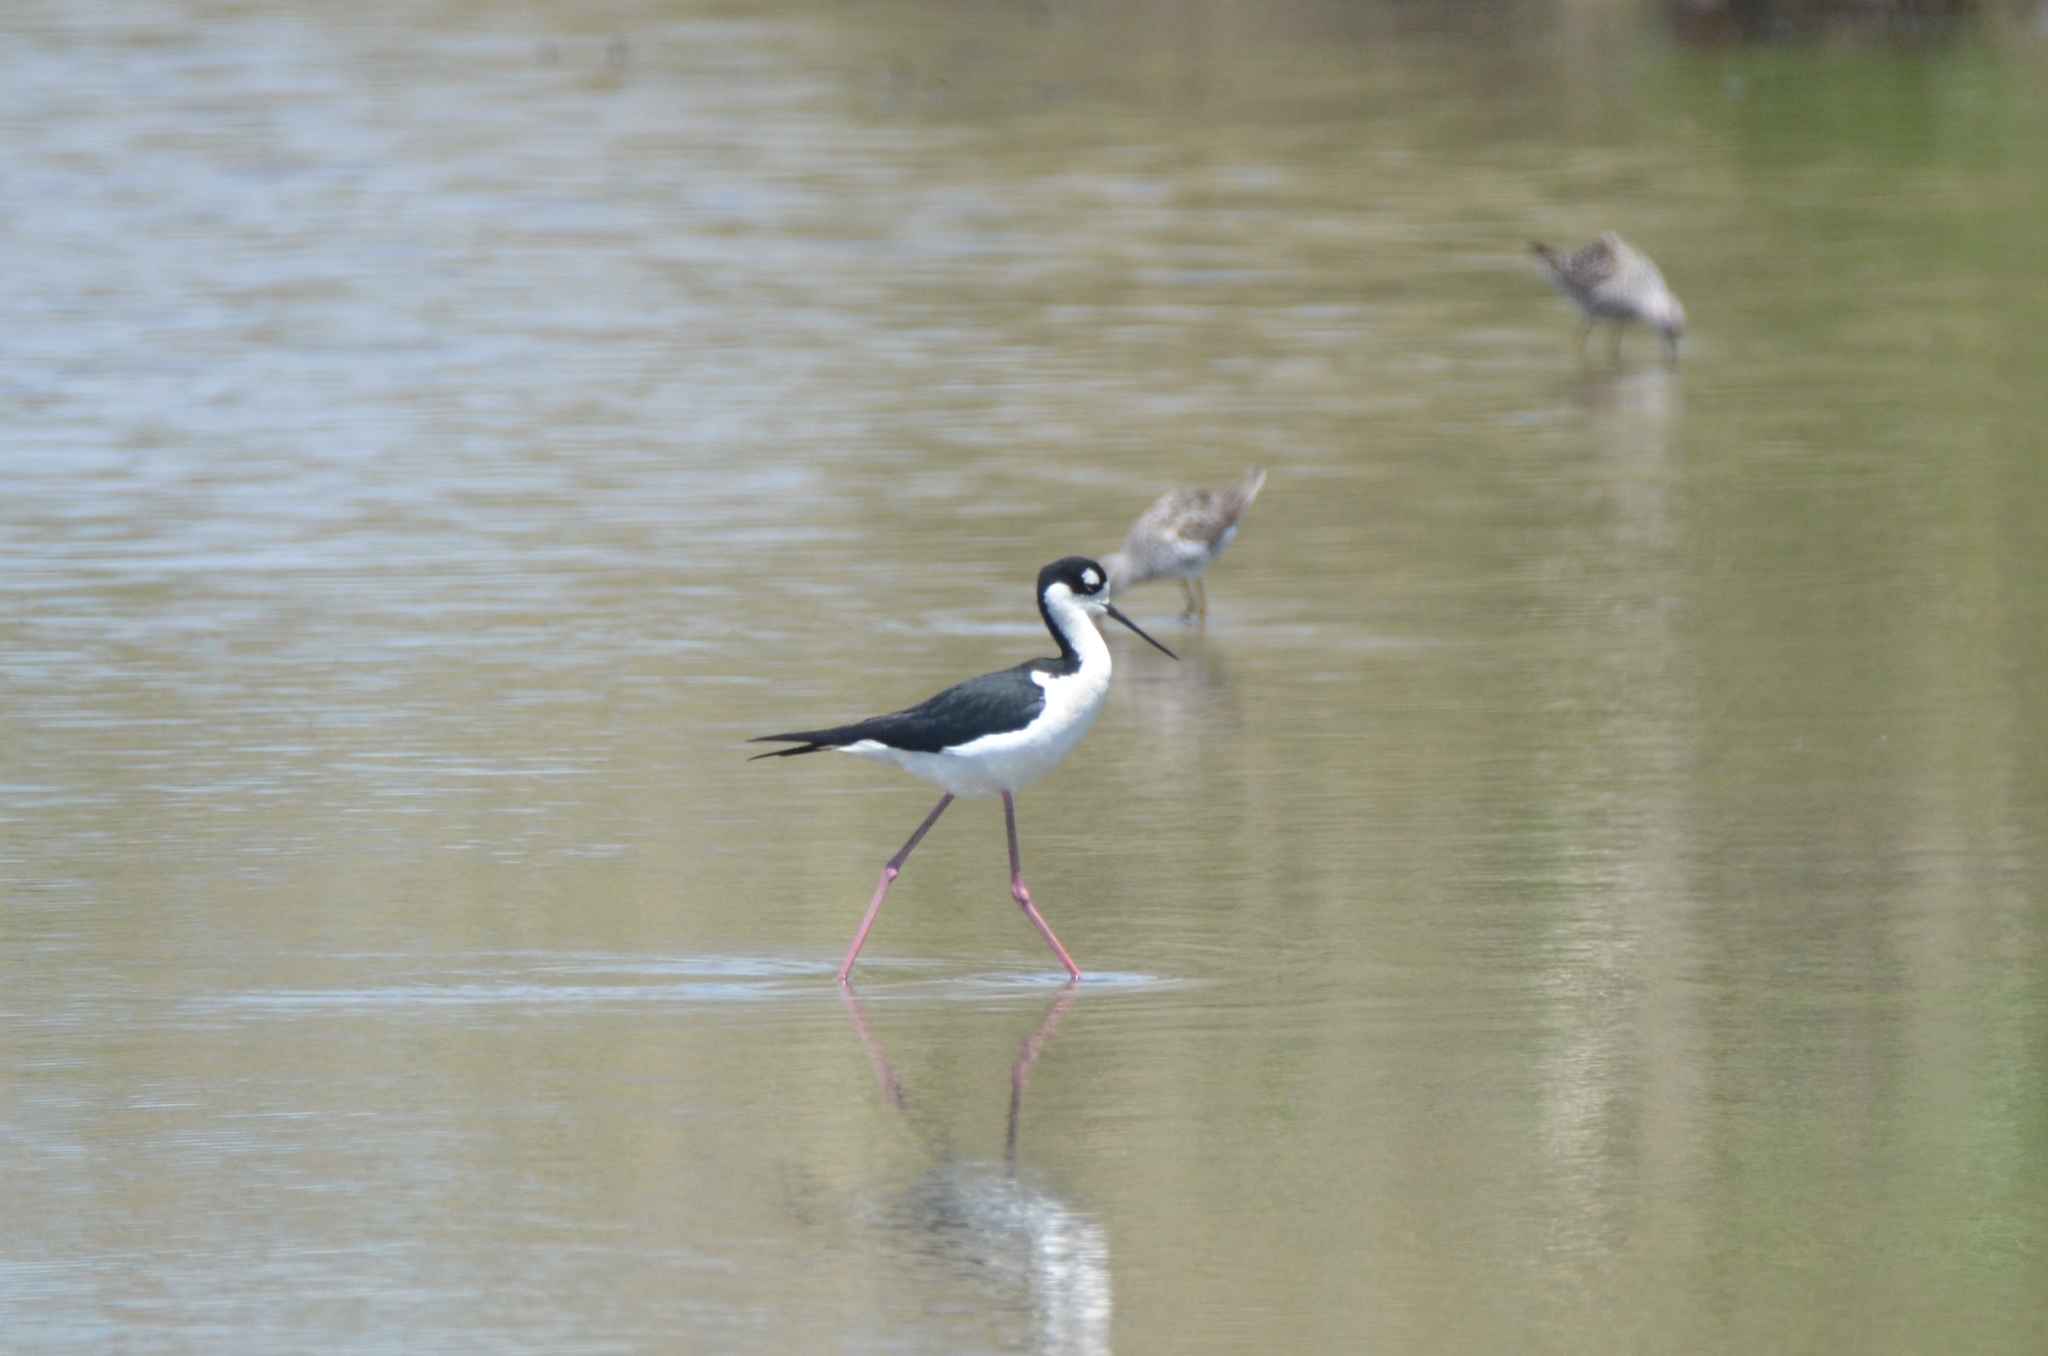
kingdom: Animalia
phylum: Chordata
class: Aves
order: Charadriiformes
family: Recurvirostridae
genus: Himantopus
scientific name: Himantopus mexicanus
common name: Black-necked stilt
